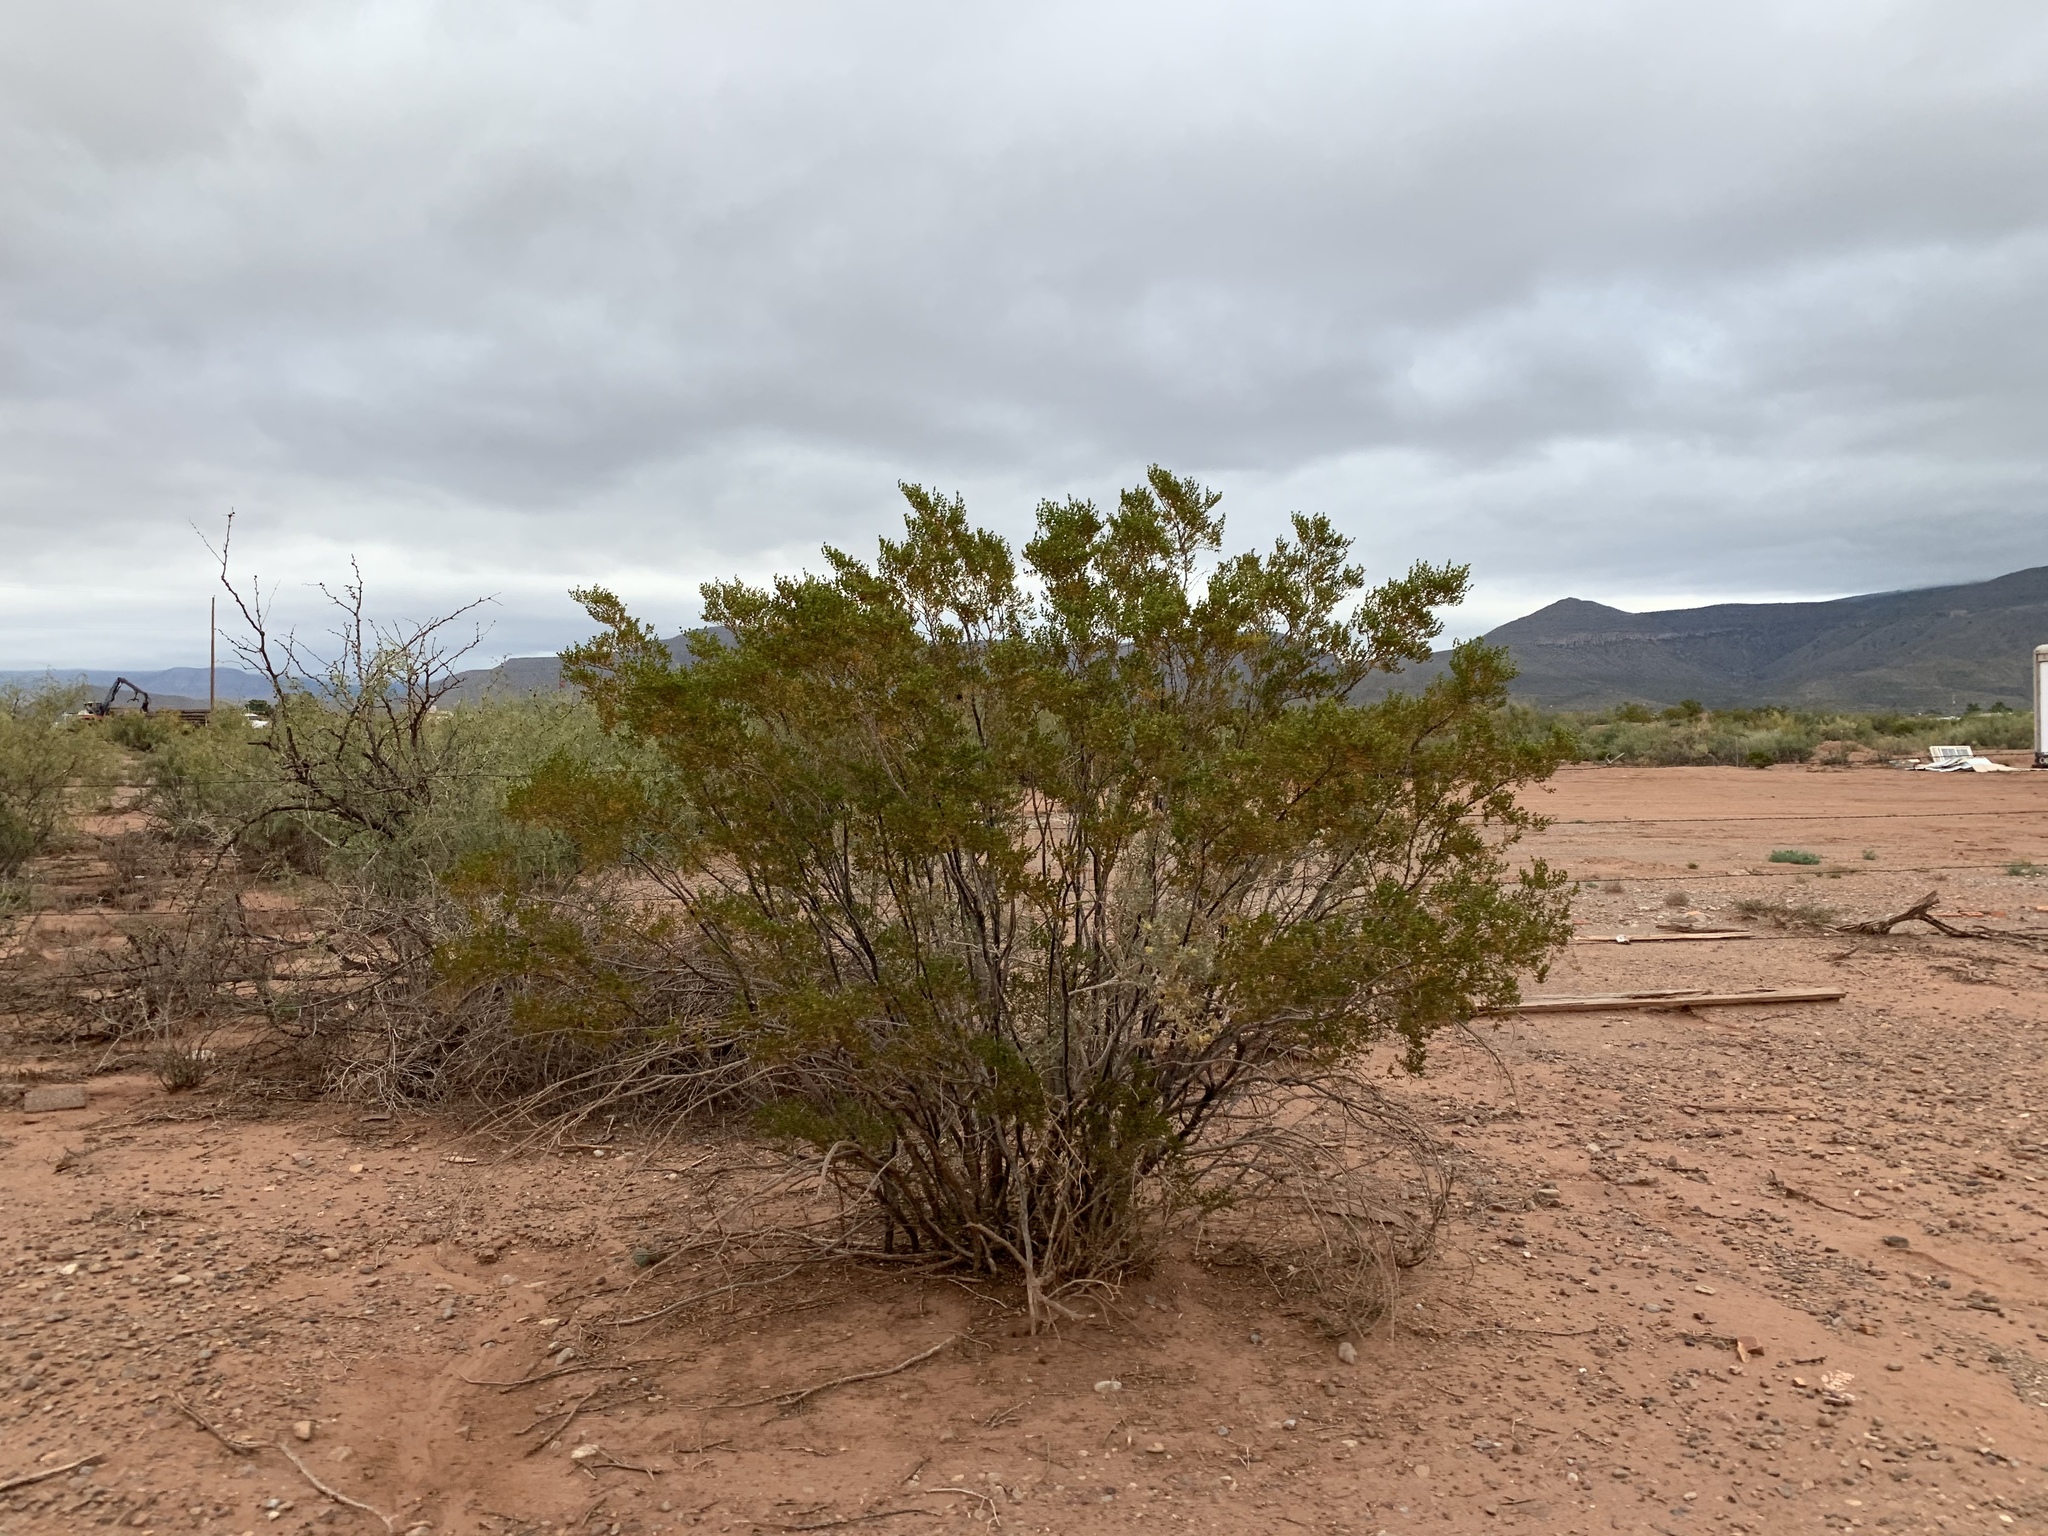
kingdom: Plantae
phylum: Tracheophyta
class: Magnoliopsida
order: Zygophyllales
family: Zygophyllaceae
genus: Larrea
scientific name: Larrea tridentata
